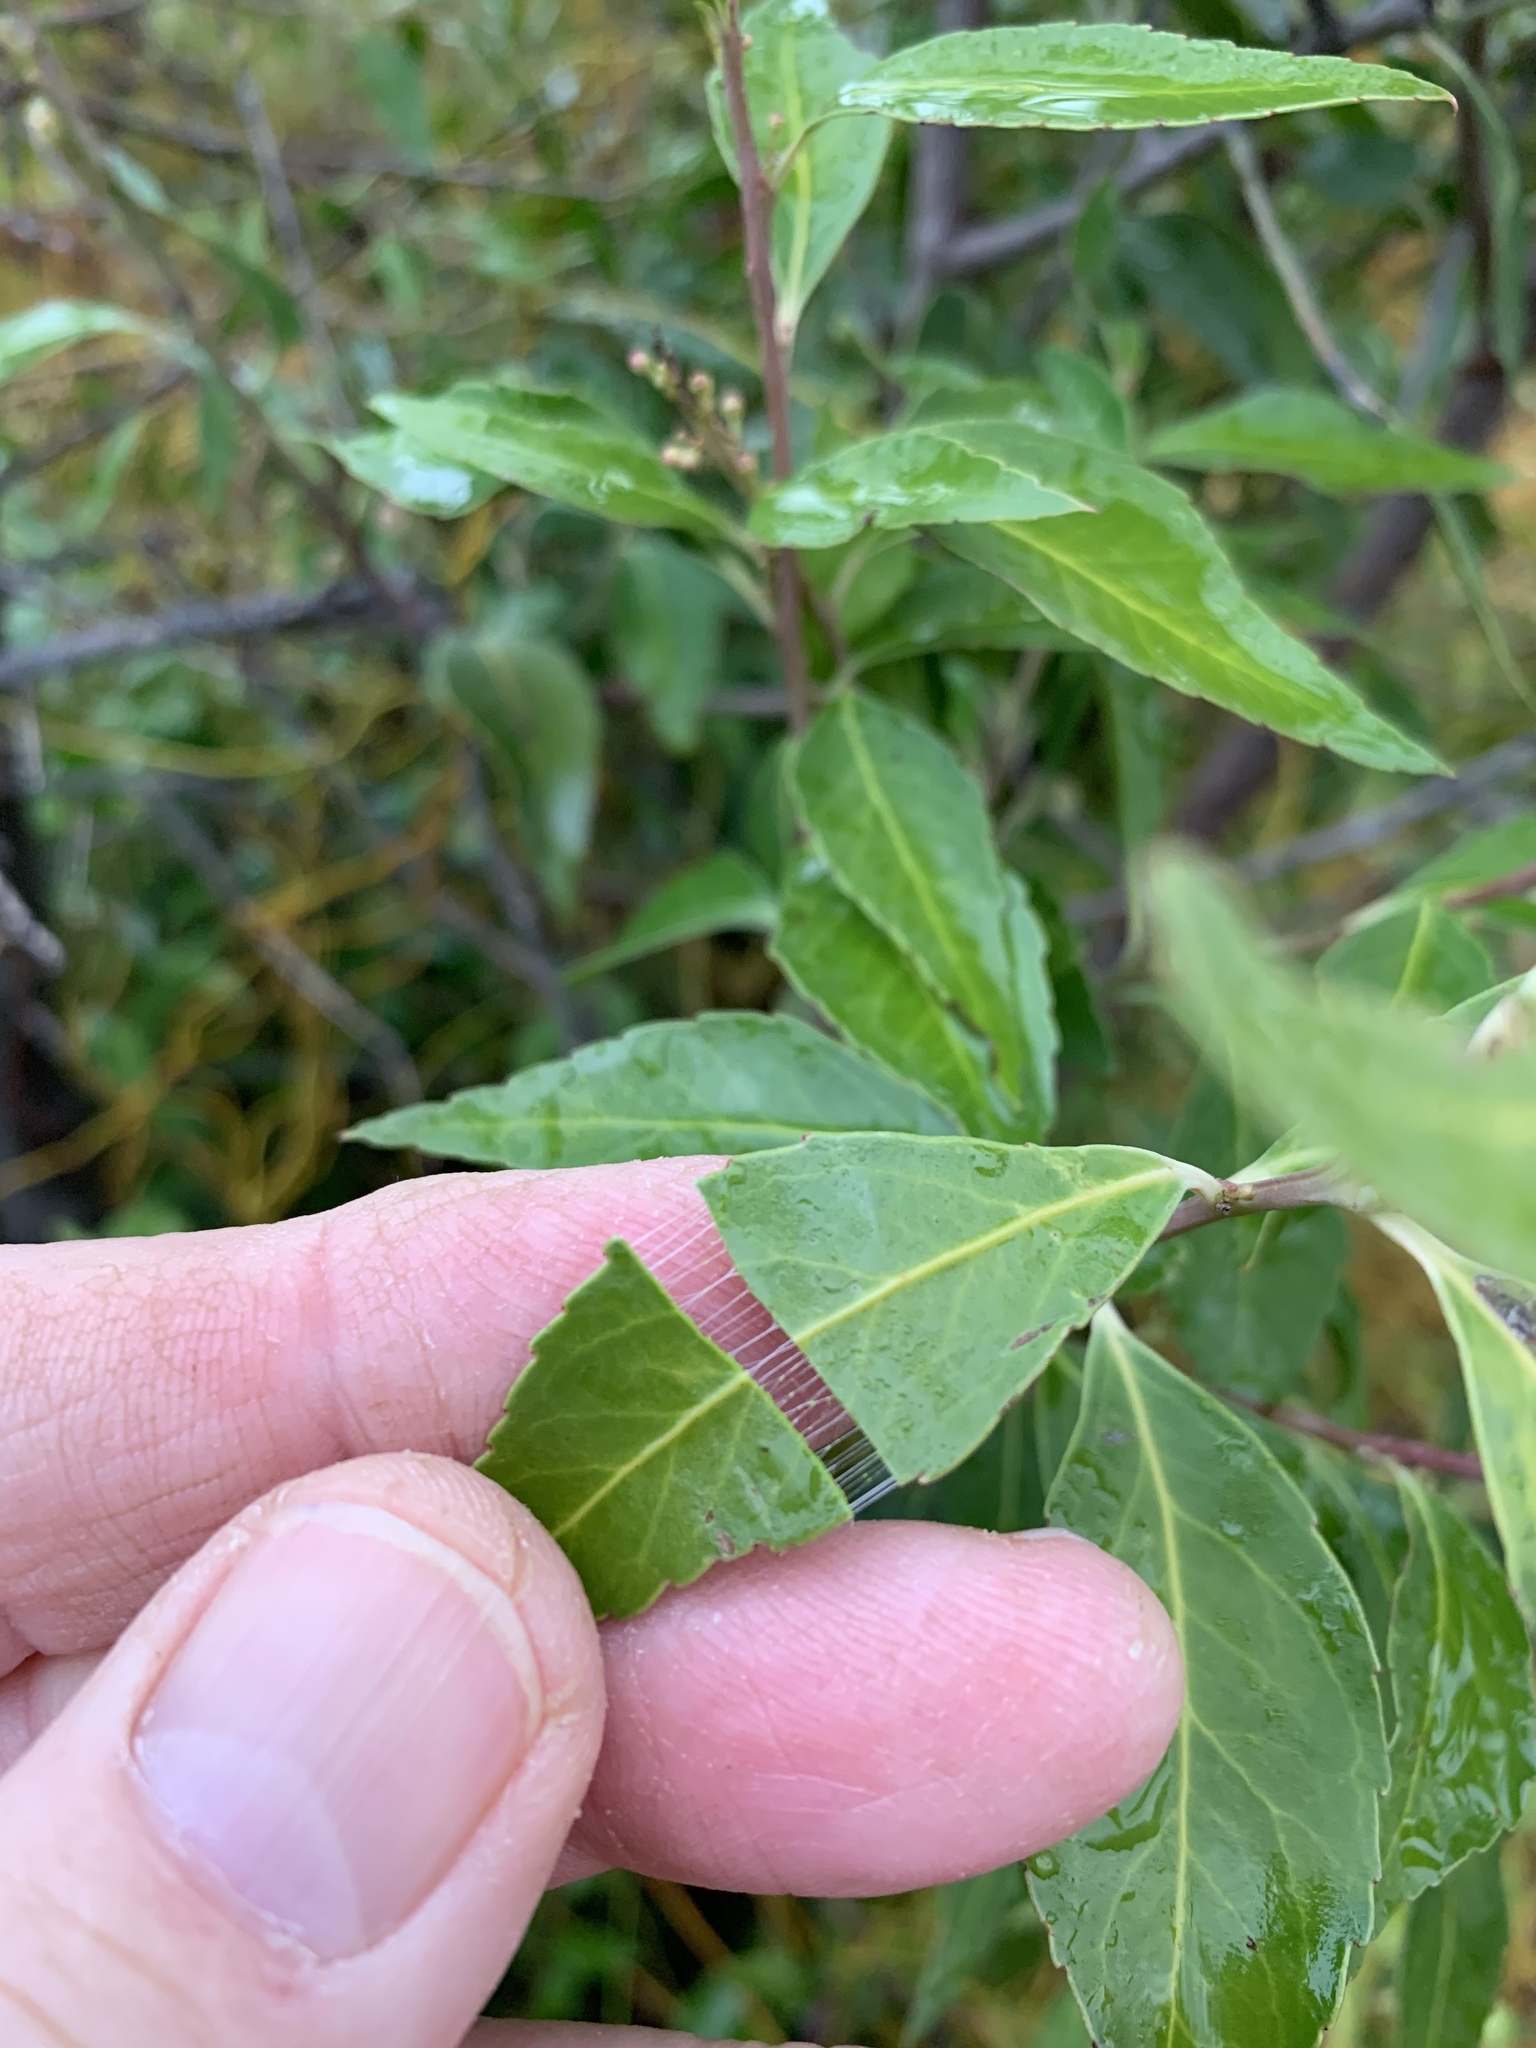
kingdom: Plantae
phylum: Tracheophyta
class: Magnoliopsida
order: Celastrales
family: Celastraceae
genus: Gymnosporia
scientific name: Gymnosporia acuminata
